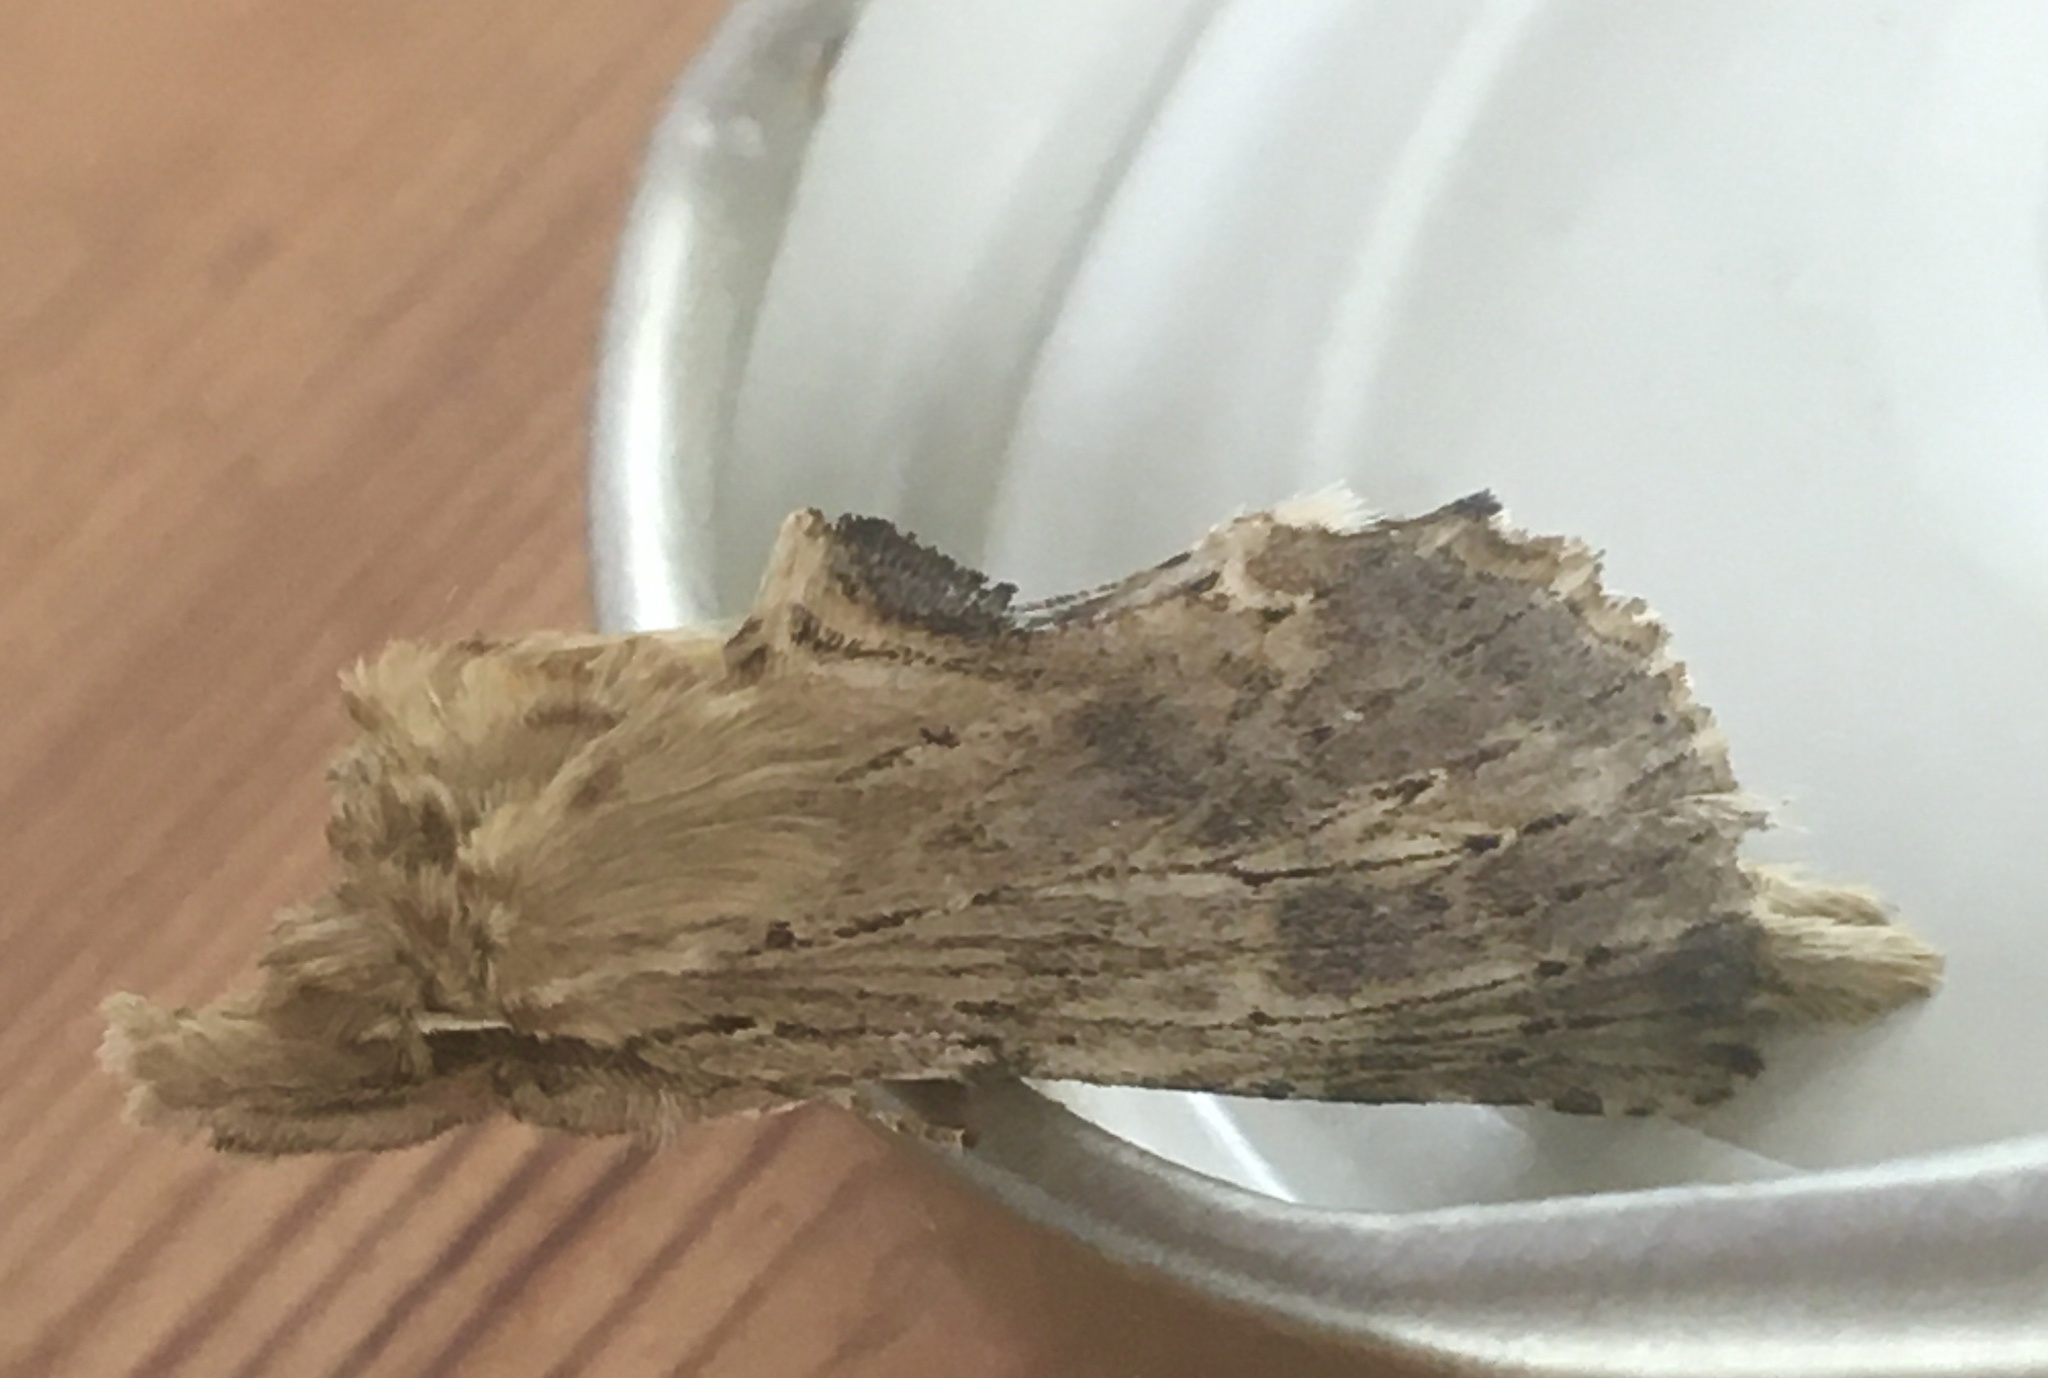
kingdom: Animalia
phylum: Arthropoda
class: Insecta
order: Lepidoptera
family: Notodontidae
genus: Pterostoma
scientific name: Pterostoma palpina
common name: Pale prominent
